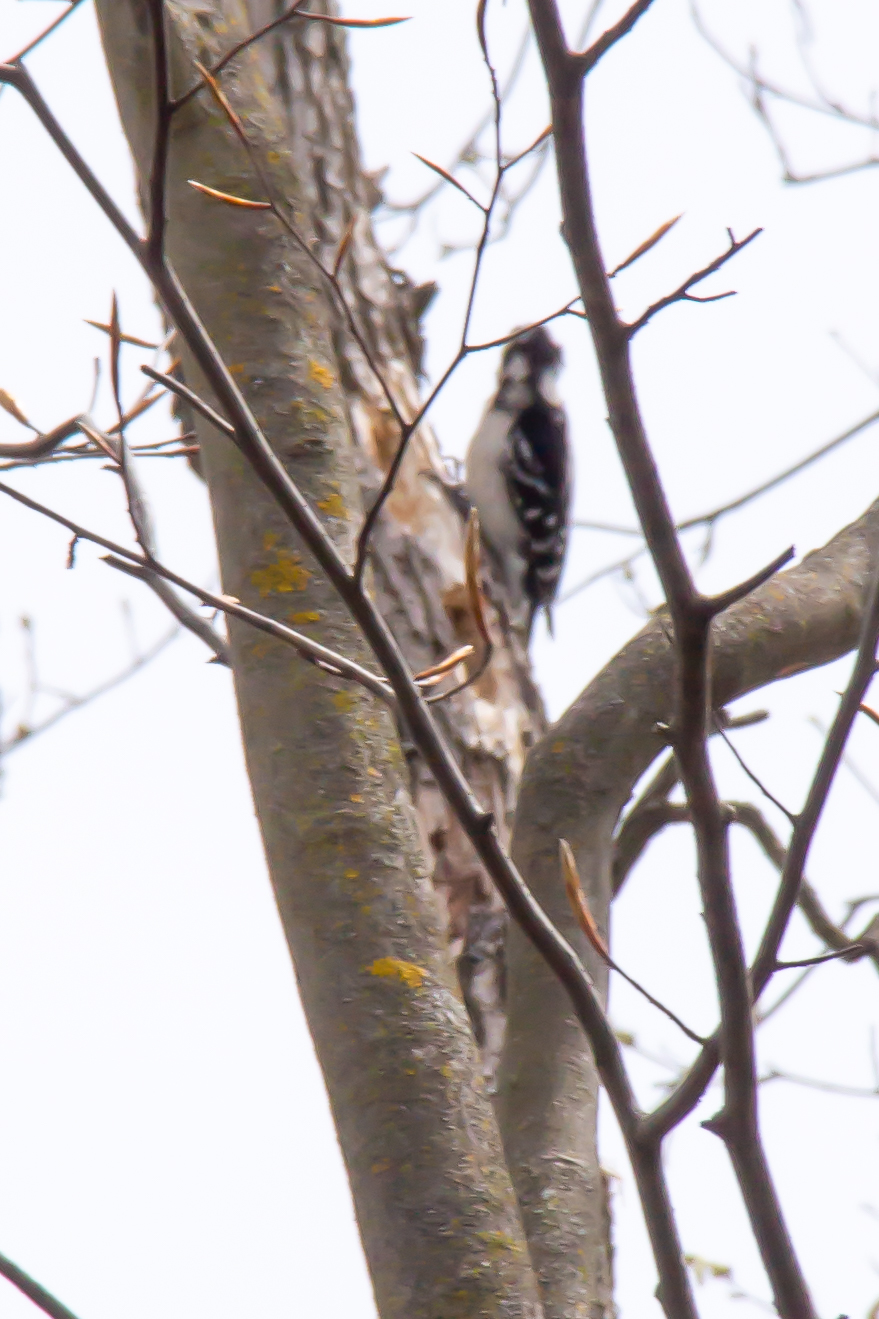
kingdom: Animalia
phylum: Chordata
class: Aves
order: Piciformes
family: Picidae
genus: Leuconotopicus
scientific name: Leuconotopicus villosus
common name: Hairy woodpecker
